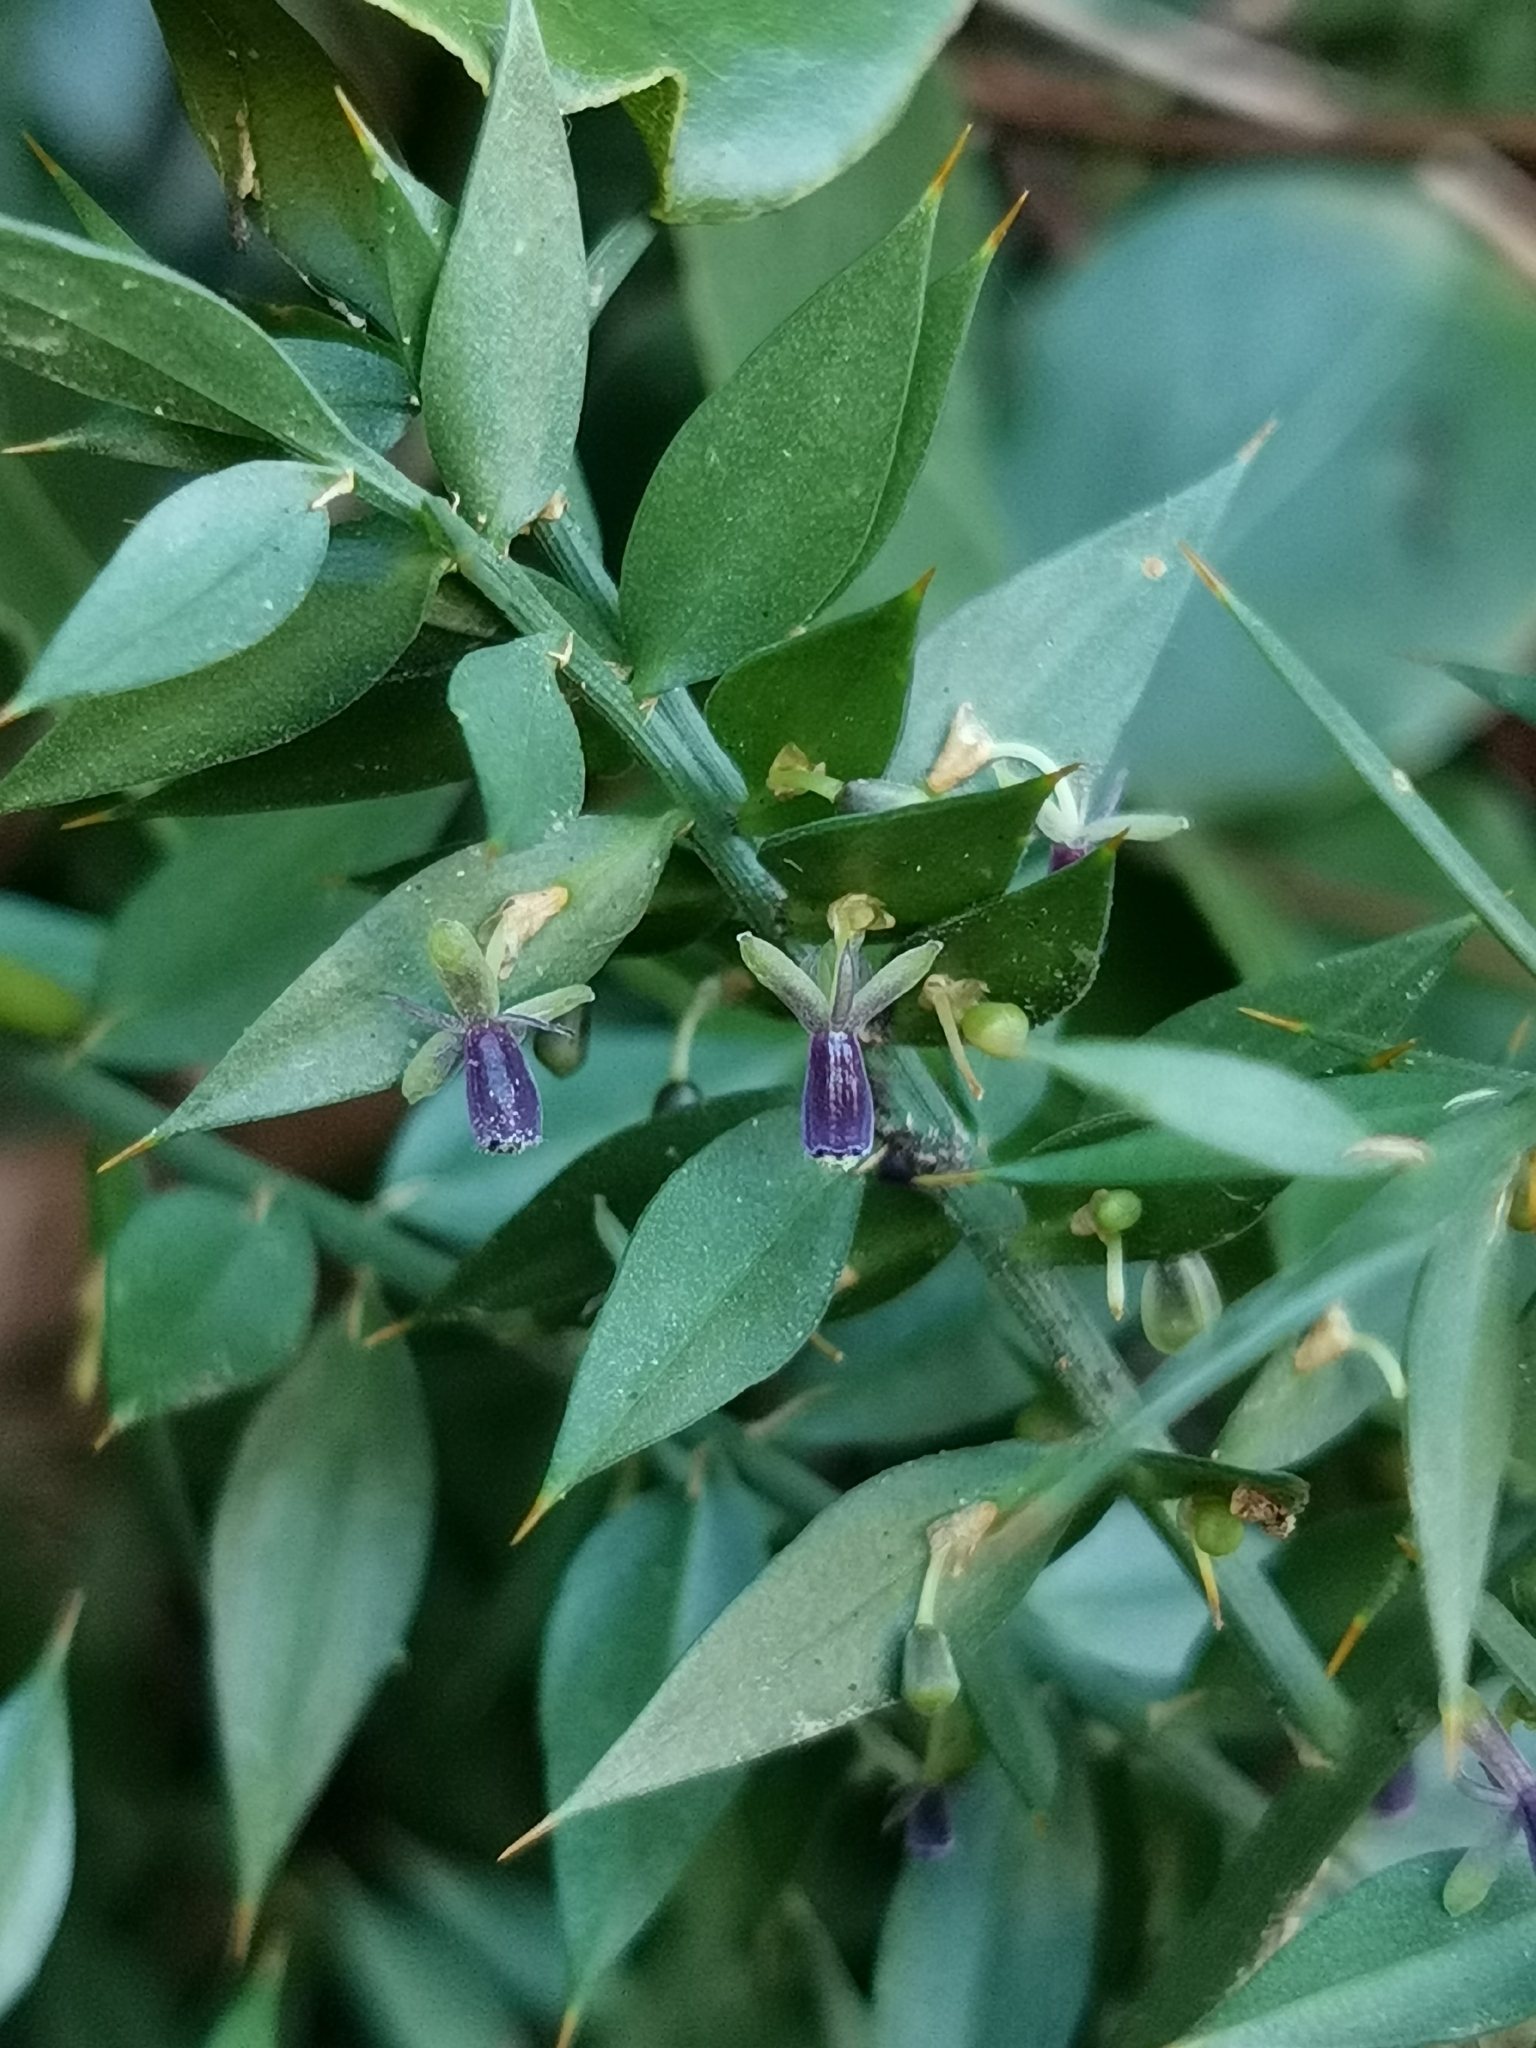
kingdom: Plantae
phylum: Tracheophyta
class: Liliopsida
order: Asparagales
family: Asparagaceae
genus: Ruscus
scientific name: Ruscus aculeatus
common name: Butcher's-broom
